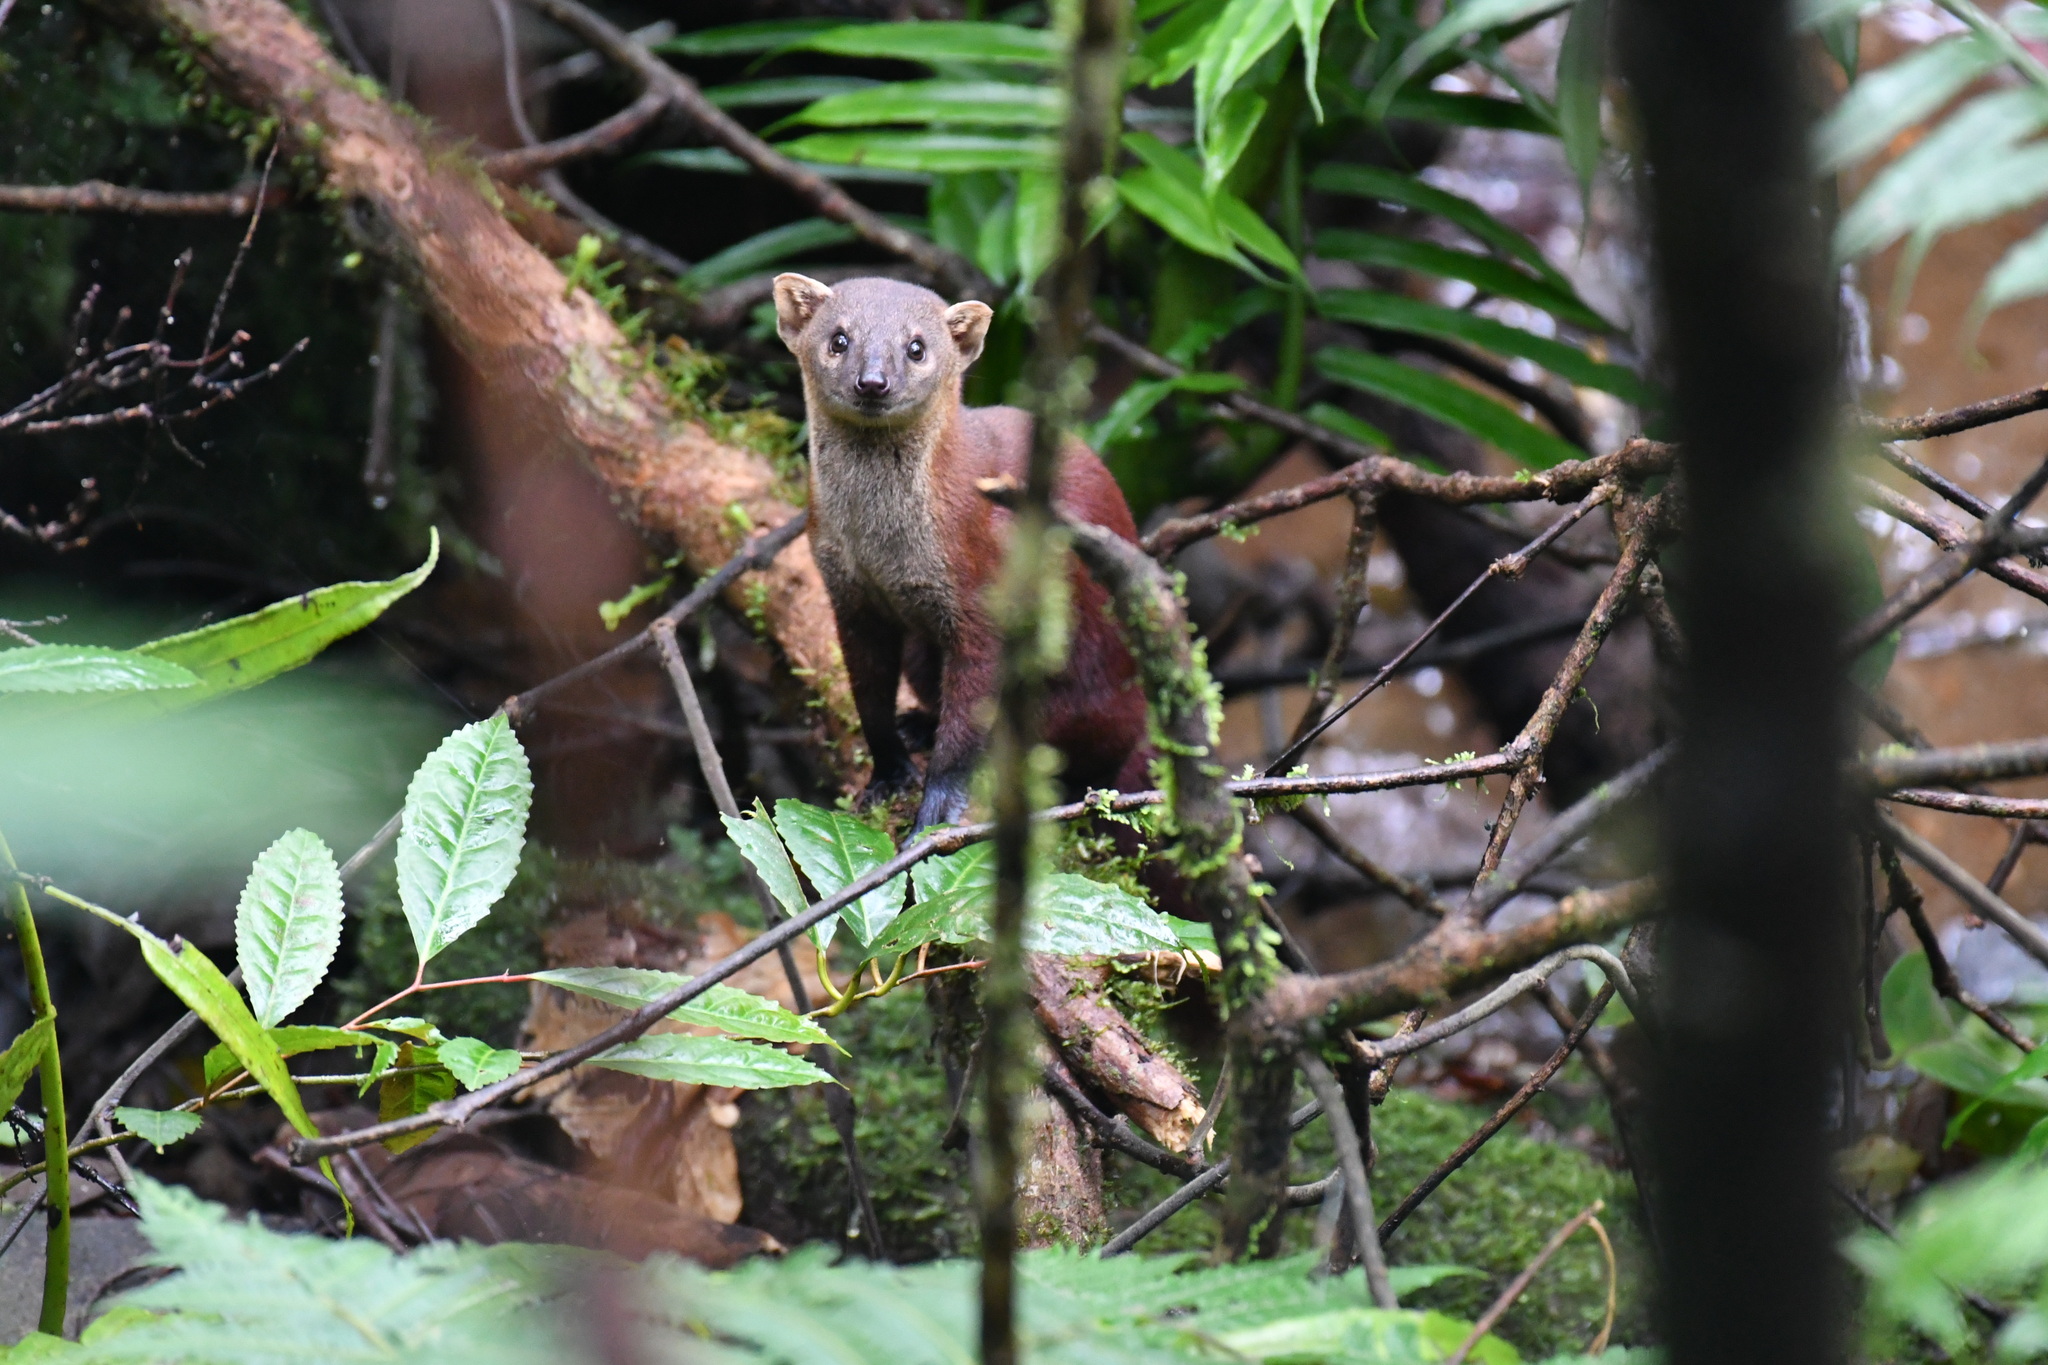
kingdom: Animalia
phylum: Chordata
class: Mammalia
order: Carnivora
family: Eupleridae
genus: Galidia
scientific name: Galidia elegans
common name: Ring-tailed mongoose
